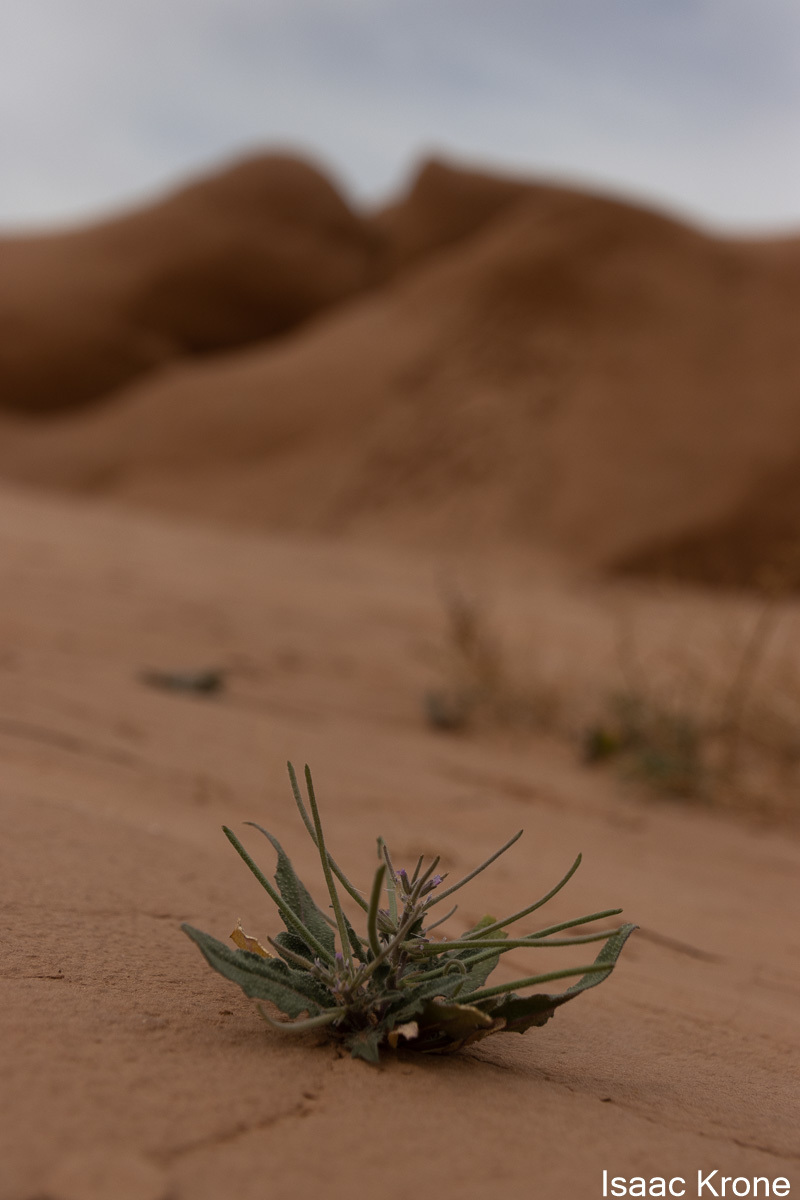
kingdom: Plantae
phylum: Tracheophyta
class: Magnoliopsida
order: Brassicales
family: Brassicaceae
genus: Strigosella
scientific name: Strigosella africana
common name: African mustard
